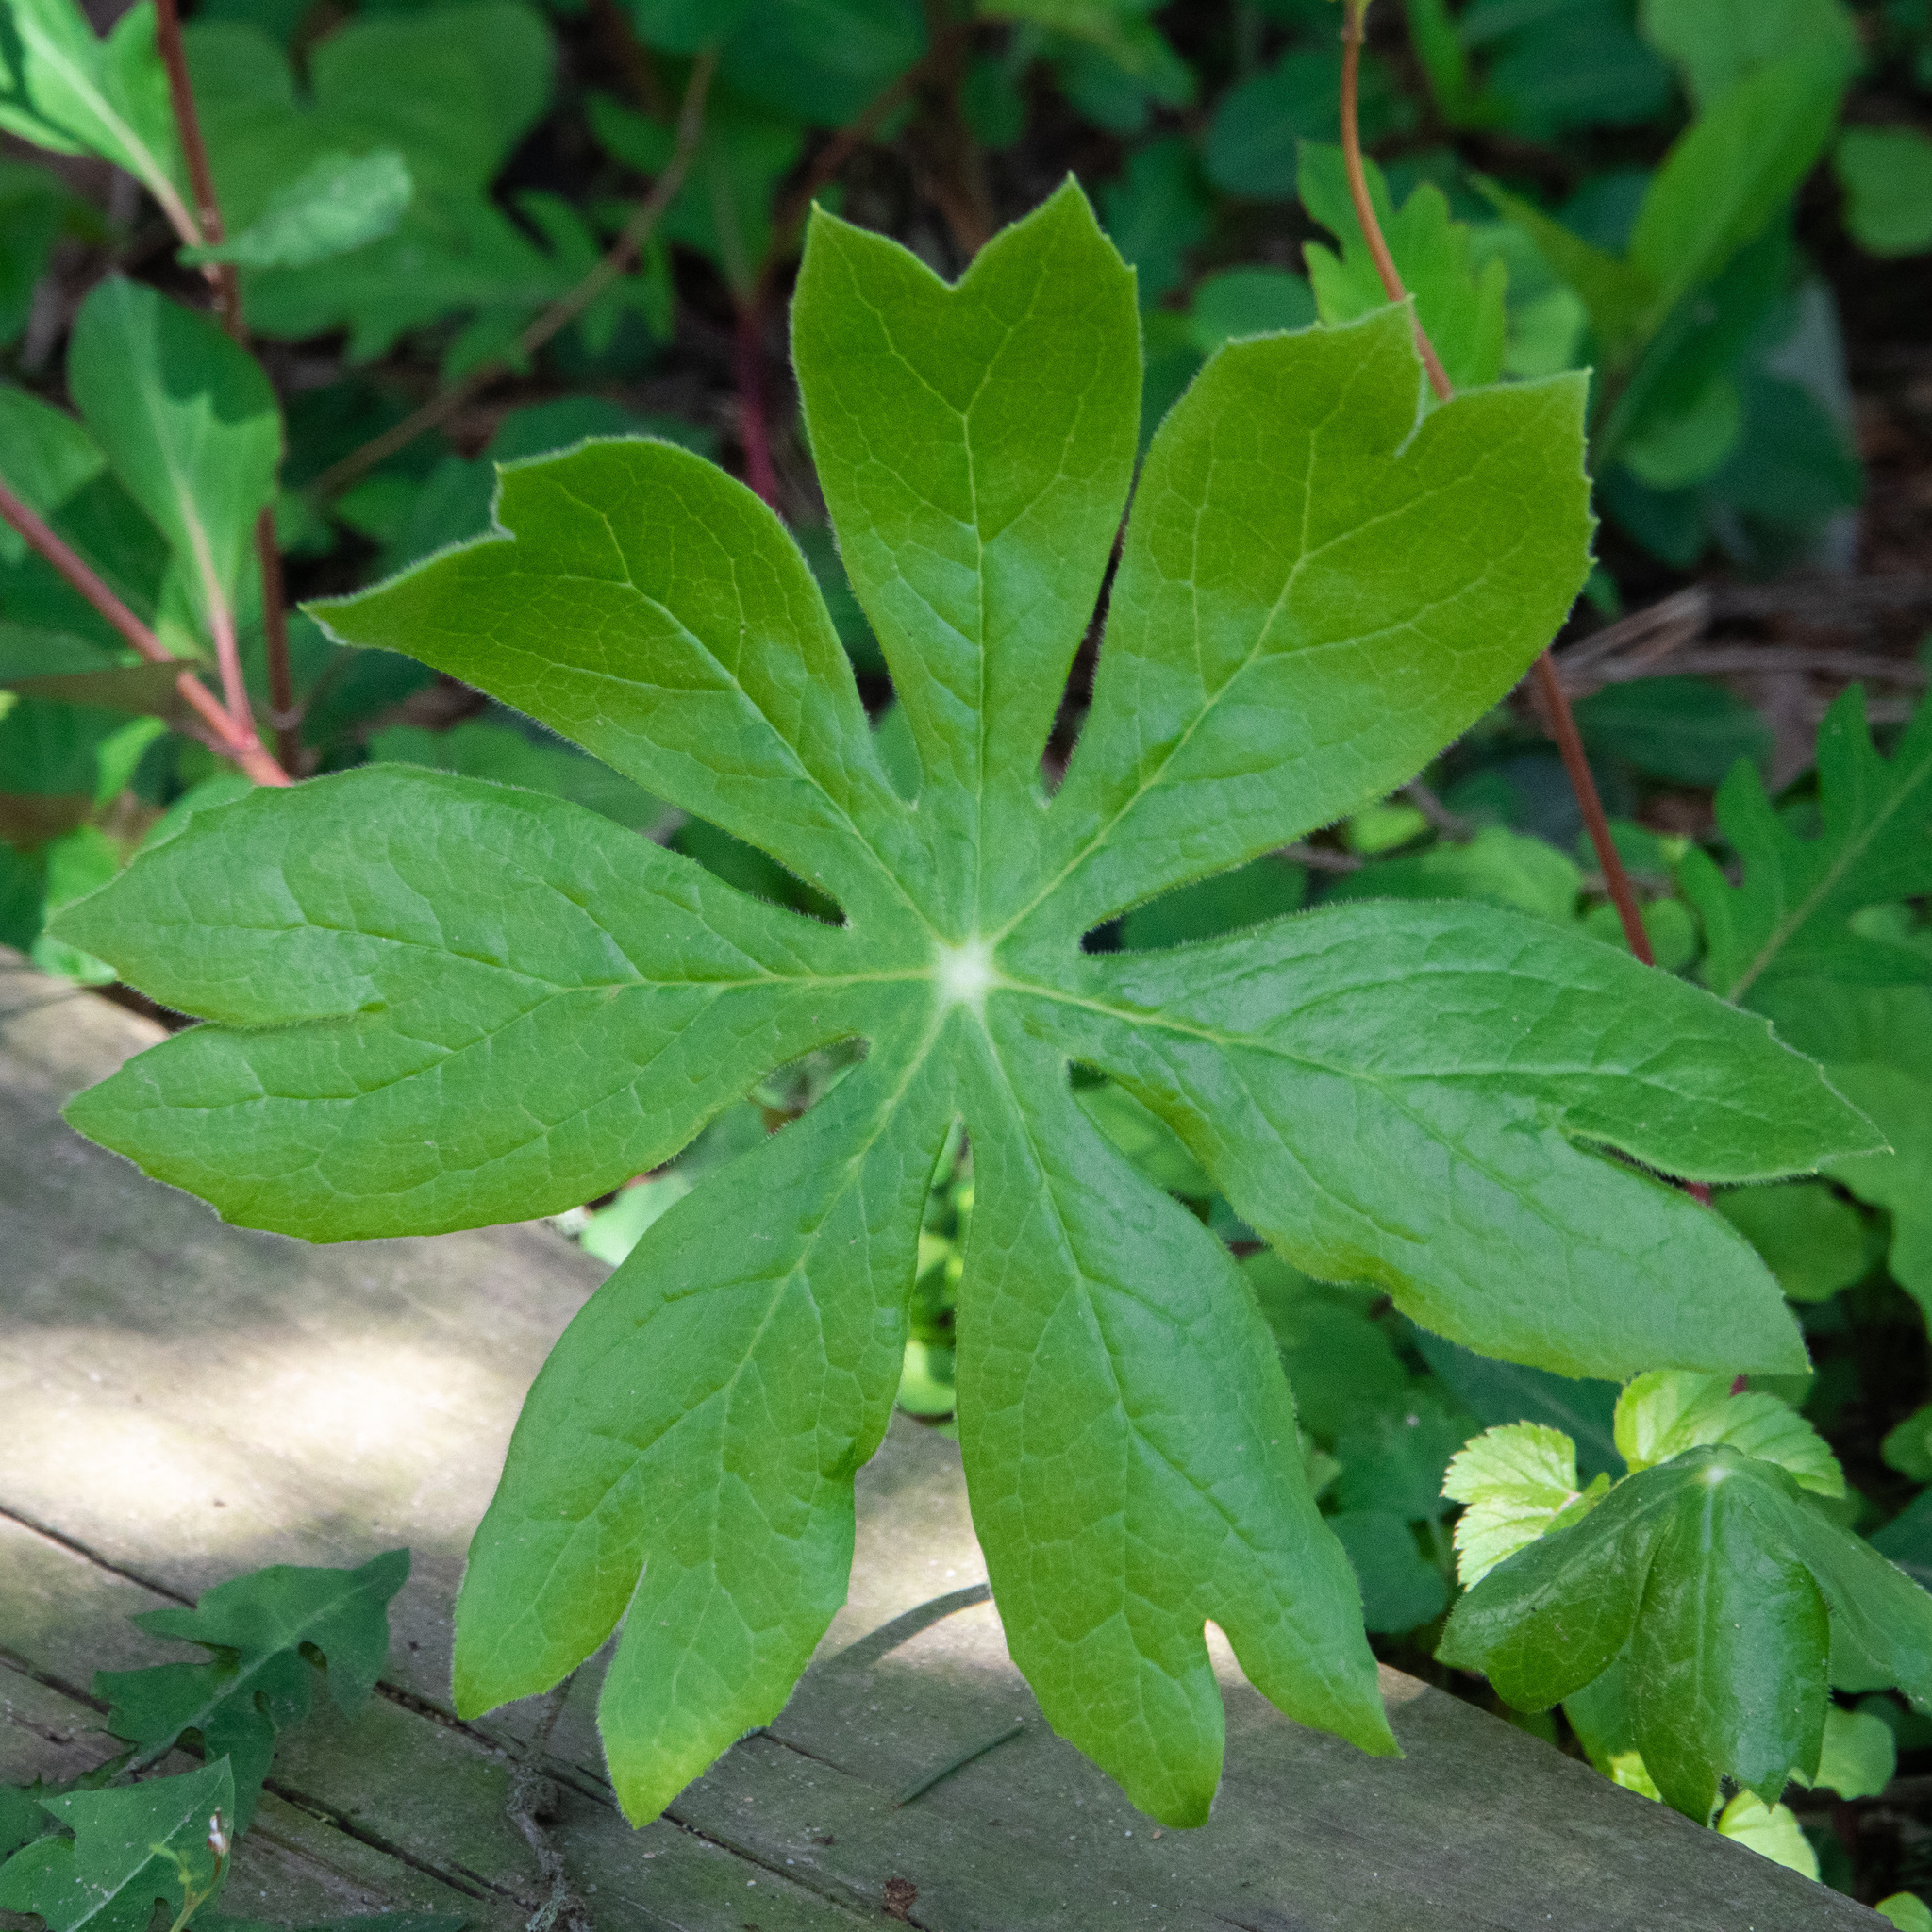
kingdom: Plantae
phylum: Tracheophyta
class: Magnoliopsida
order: Ranunculales
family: Berberidaceae
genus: Podophyllum
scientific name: Podophyllum peltatum
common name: Wild mandrake
